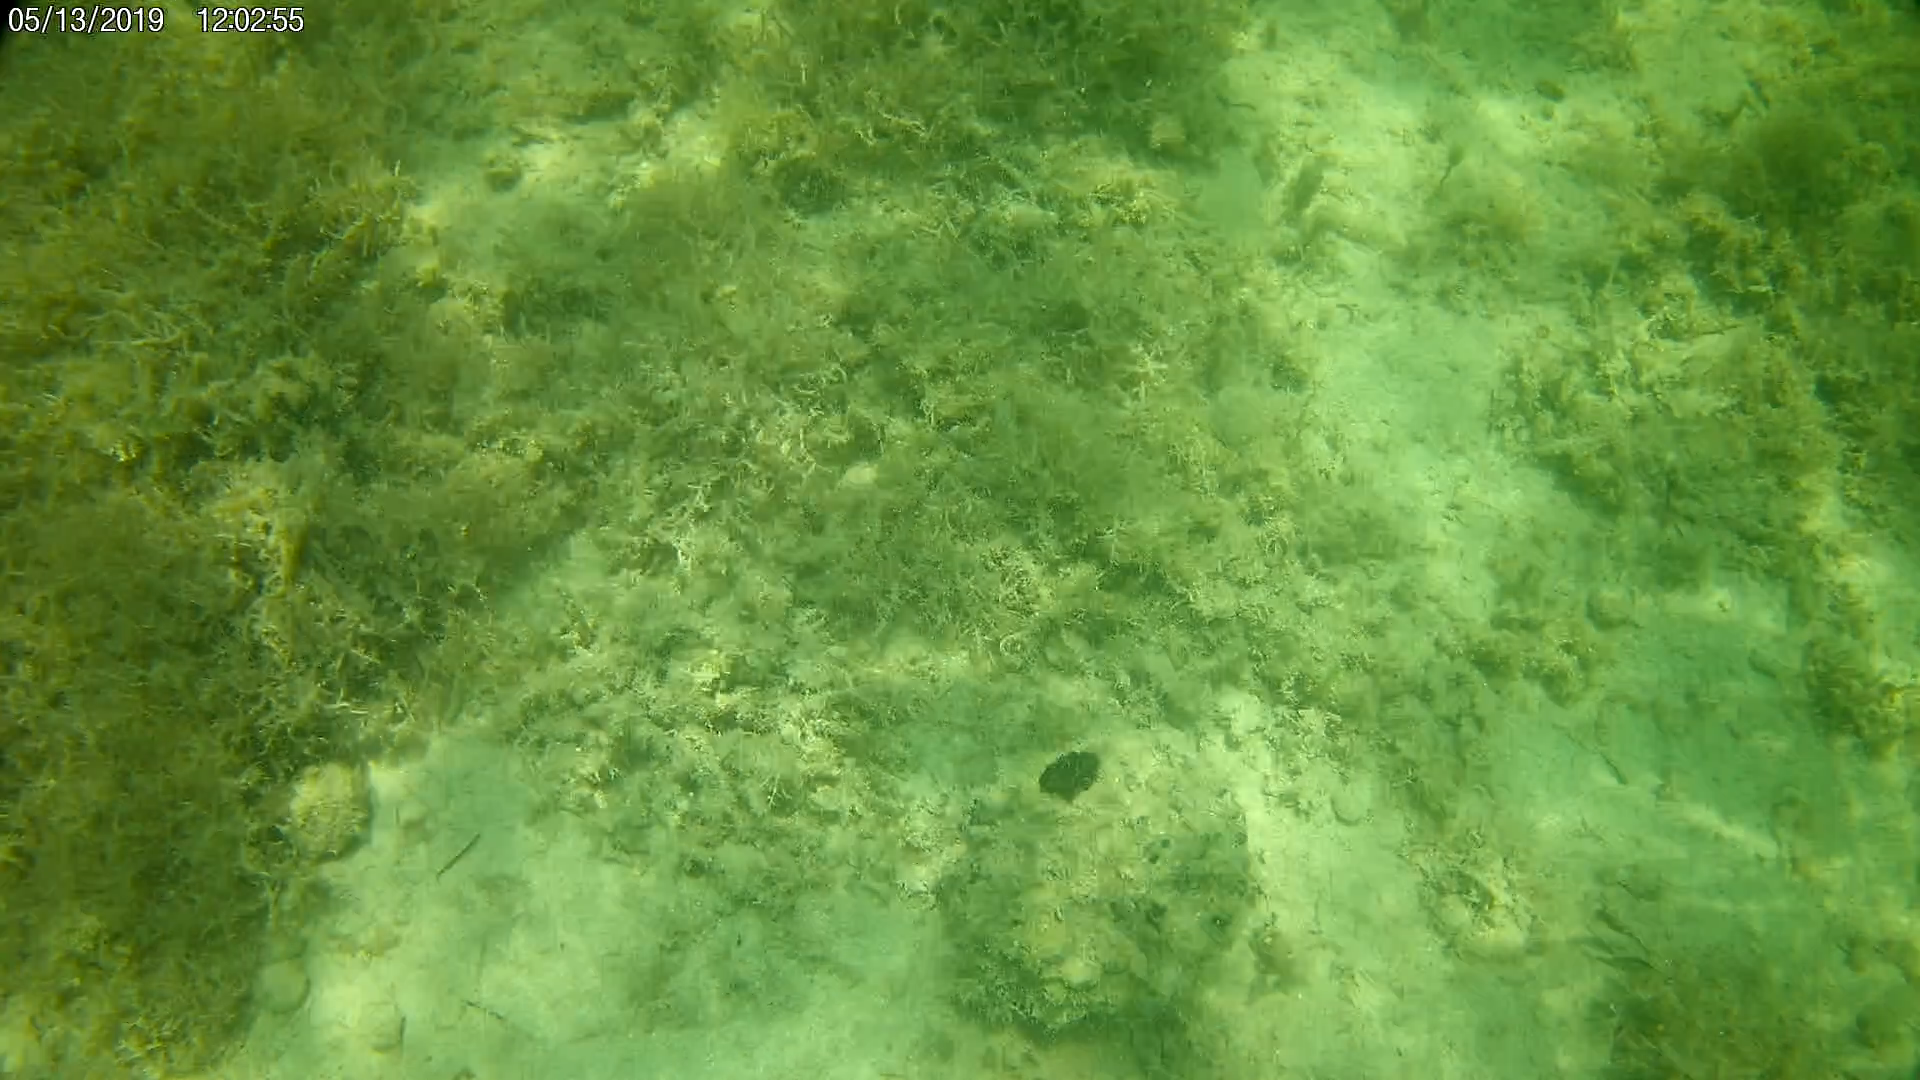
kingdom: Animalia
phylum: Porifera
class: Demospongiae
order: Clionaida
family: Clionaidae
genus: Spheciospongia
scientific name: Spheciospongia vesparium
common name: Manjack
